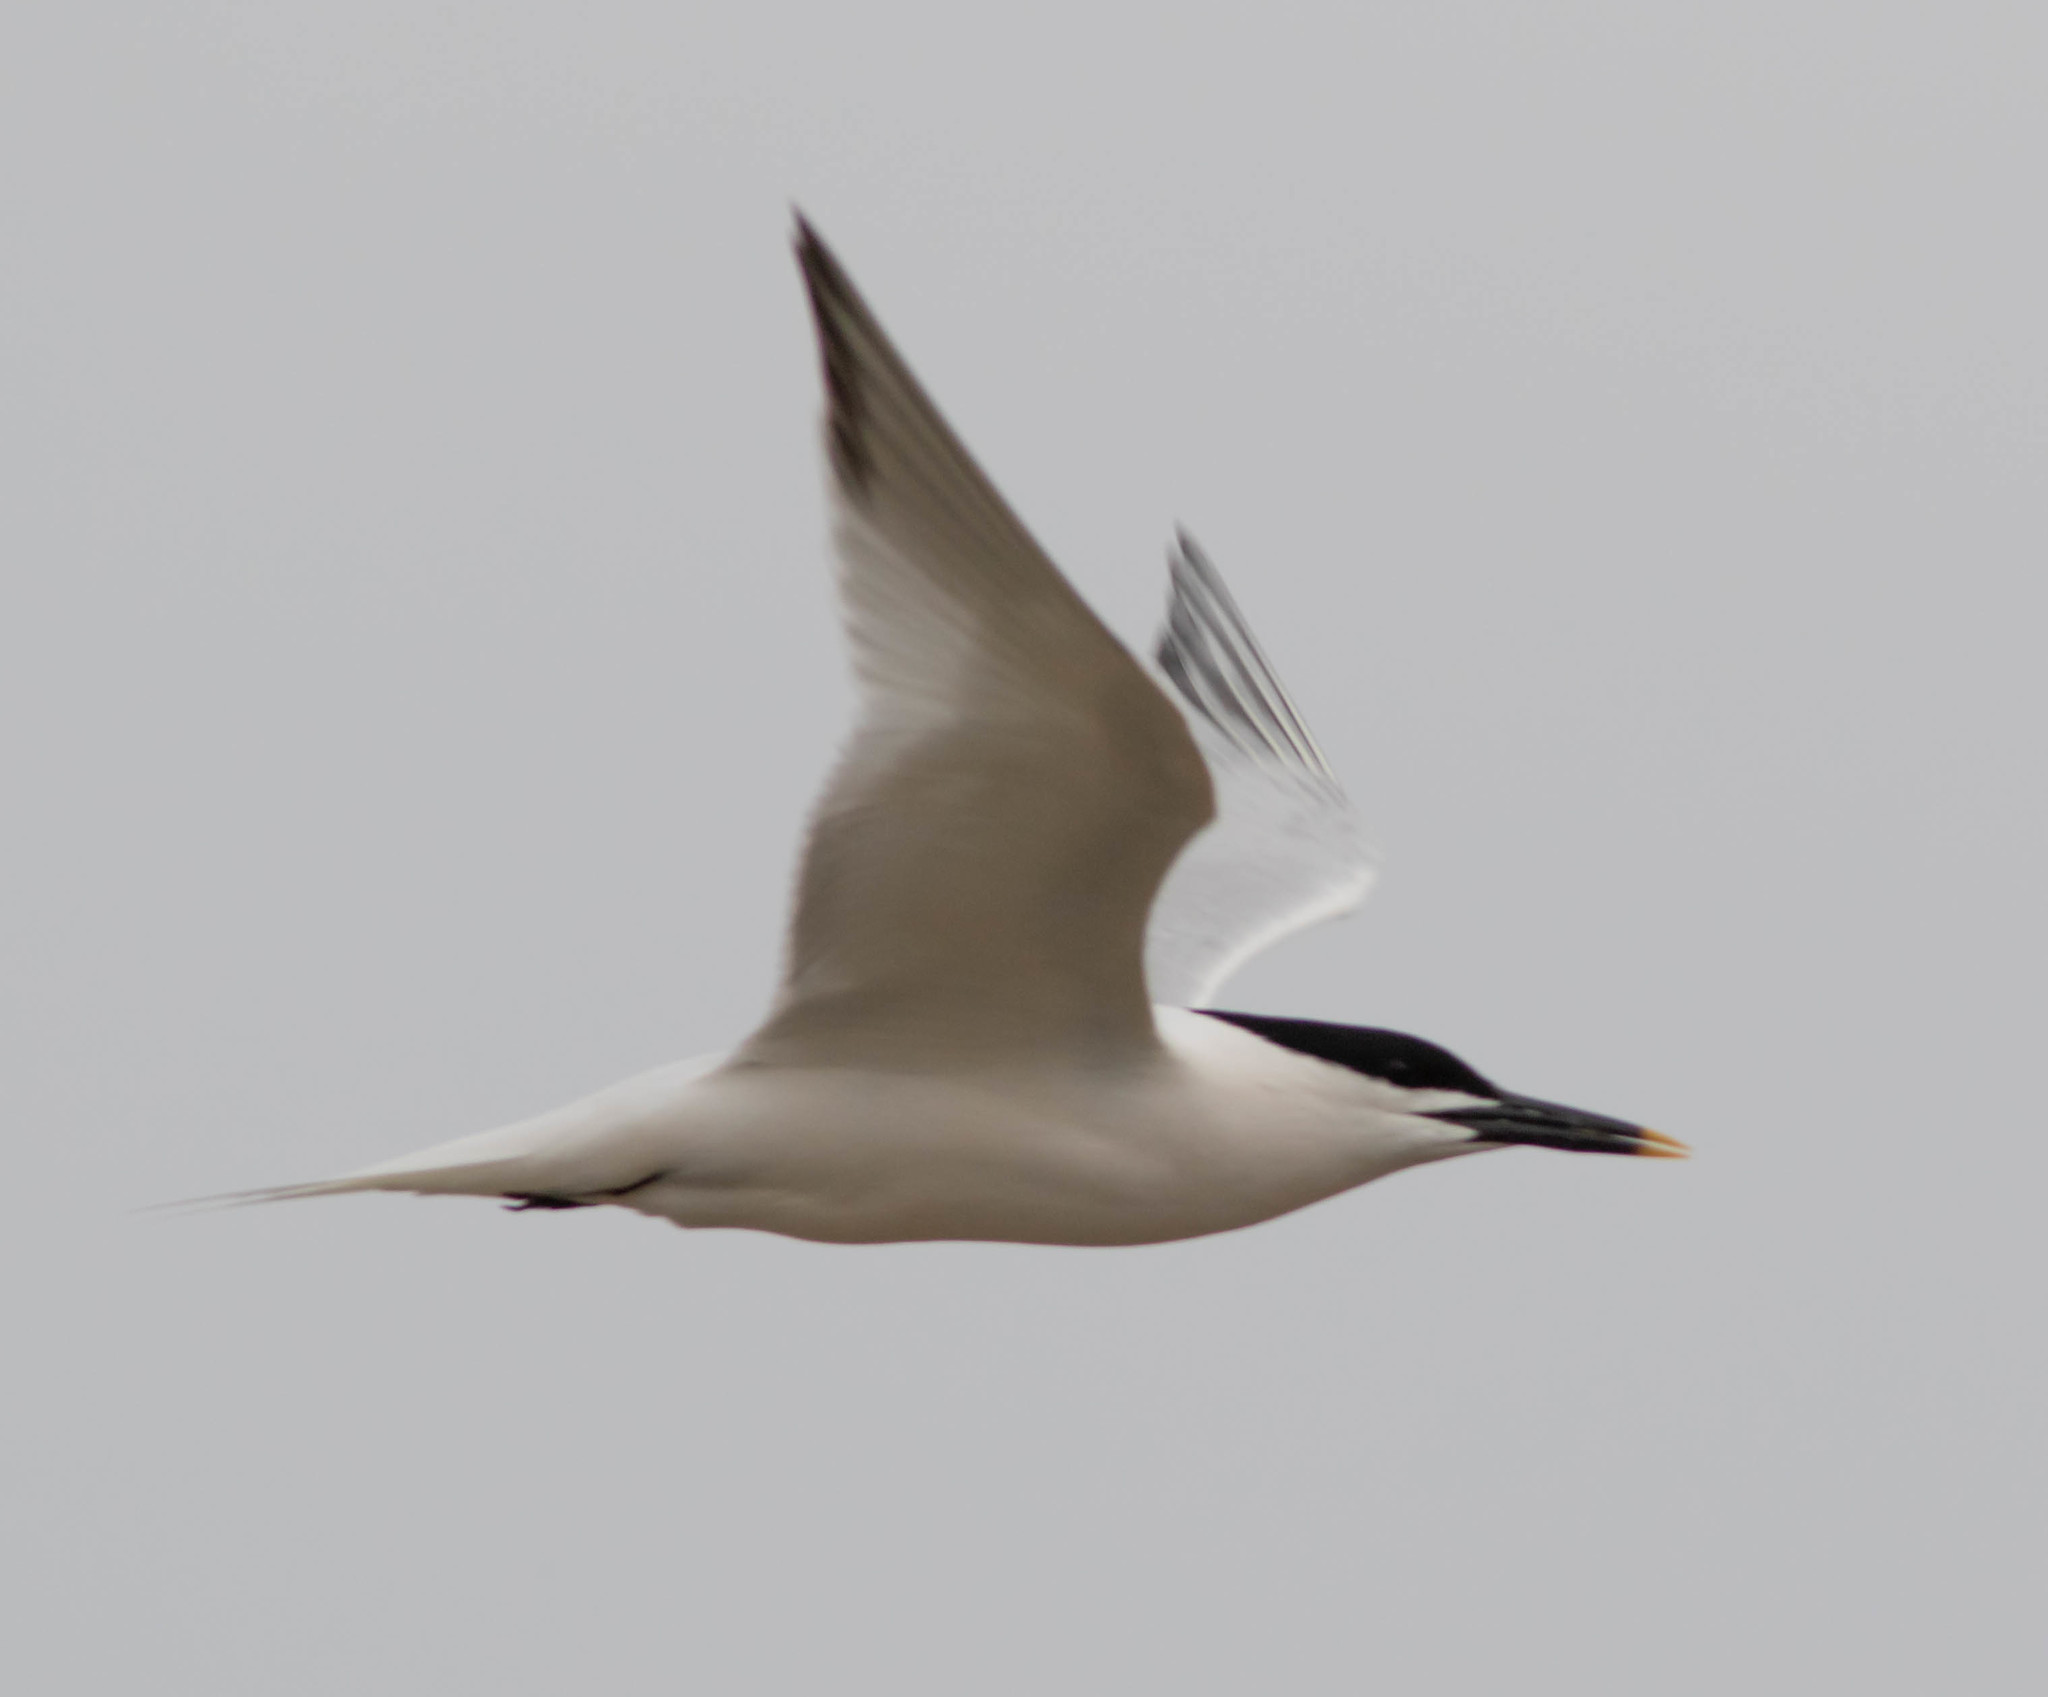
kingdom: Animalia
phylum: Chordata
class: Aves
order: Charadriiformes
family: Laridae
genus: Thalasseus
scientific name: Thalasseus sandvicensis
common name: Sandwich tern
